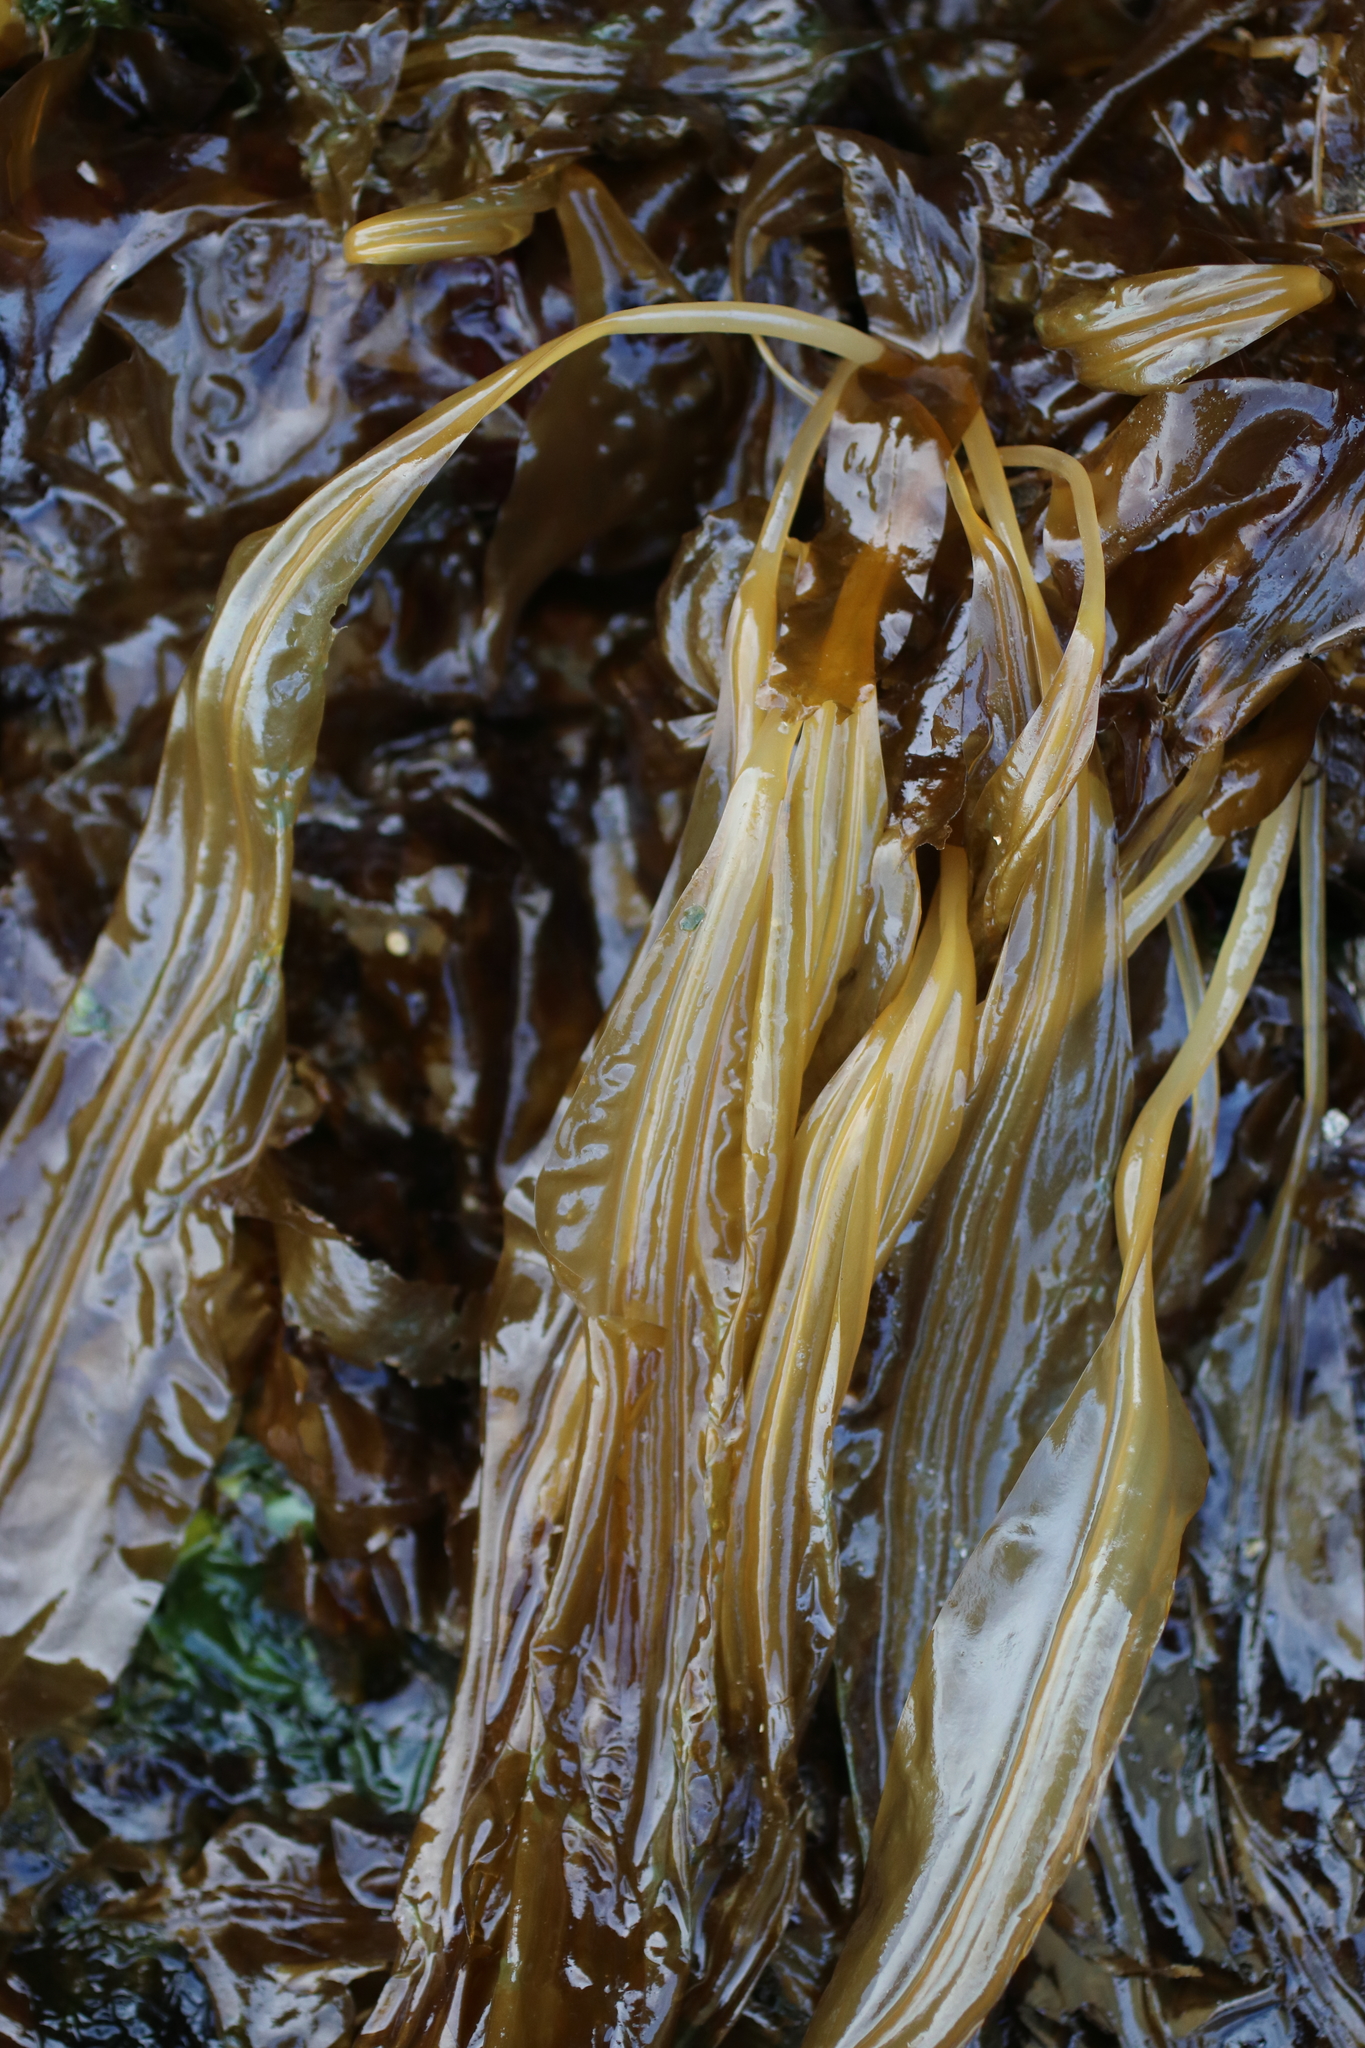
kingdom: Chromista
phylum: Ochrophyta
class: Phaeophyceae
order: Laminariales
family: Laminariaceae
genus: Cymathaere
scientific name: Cymathaere triplicata
